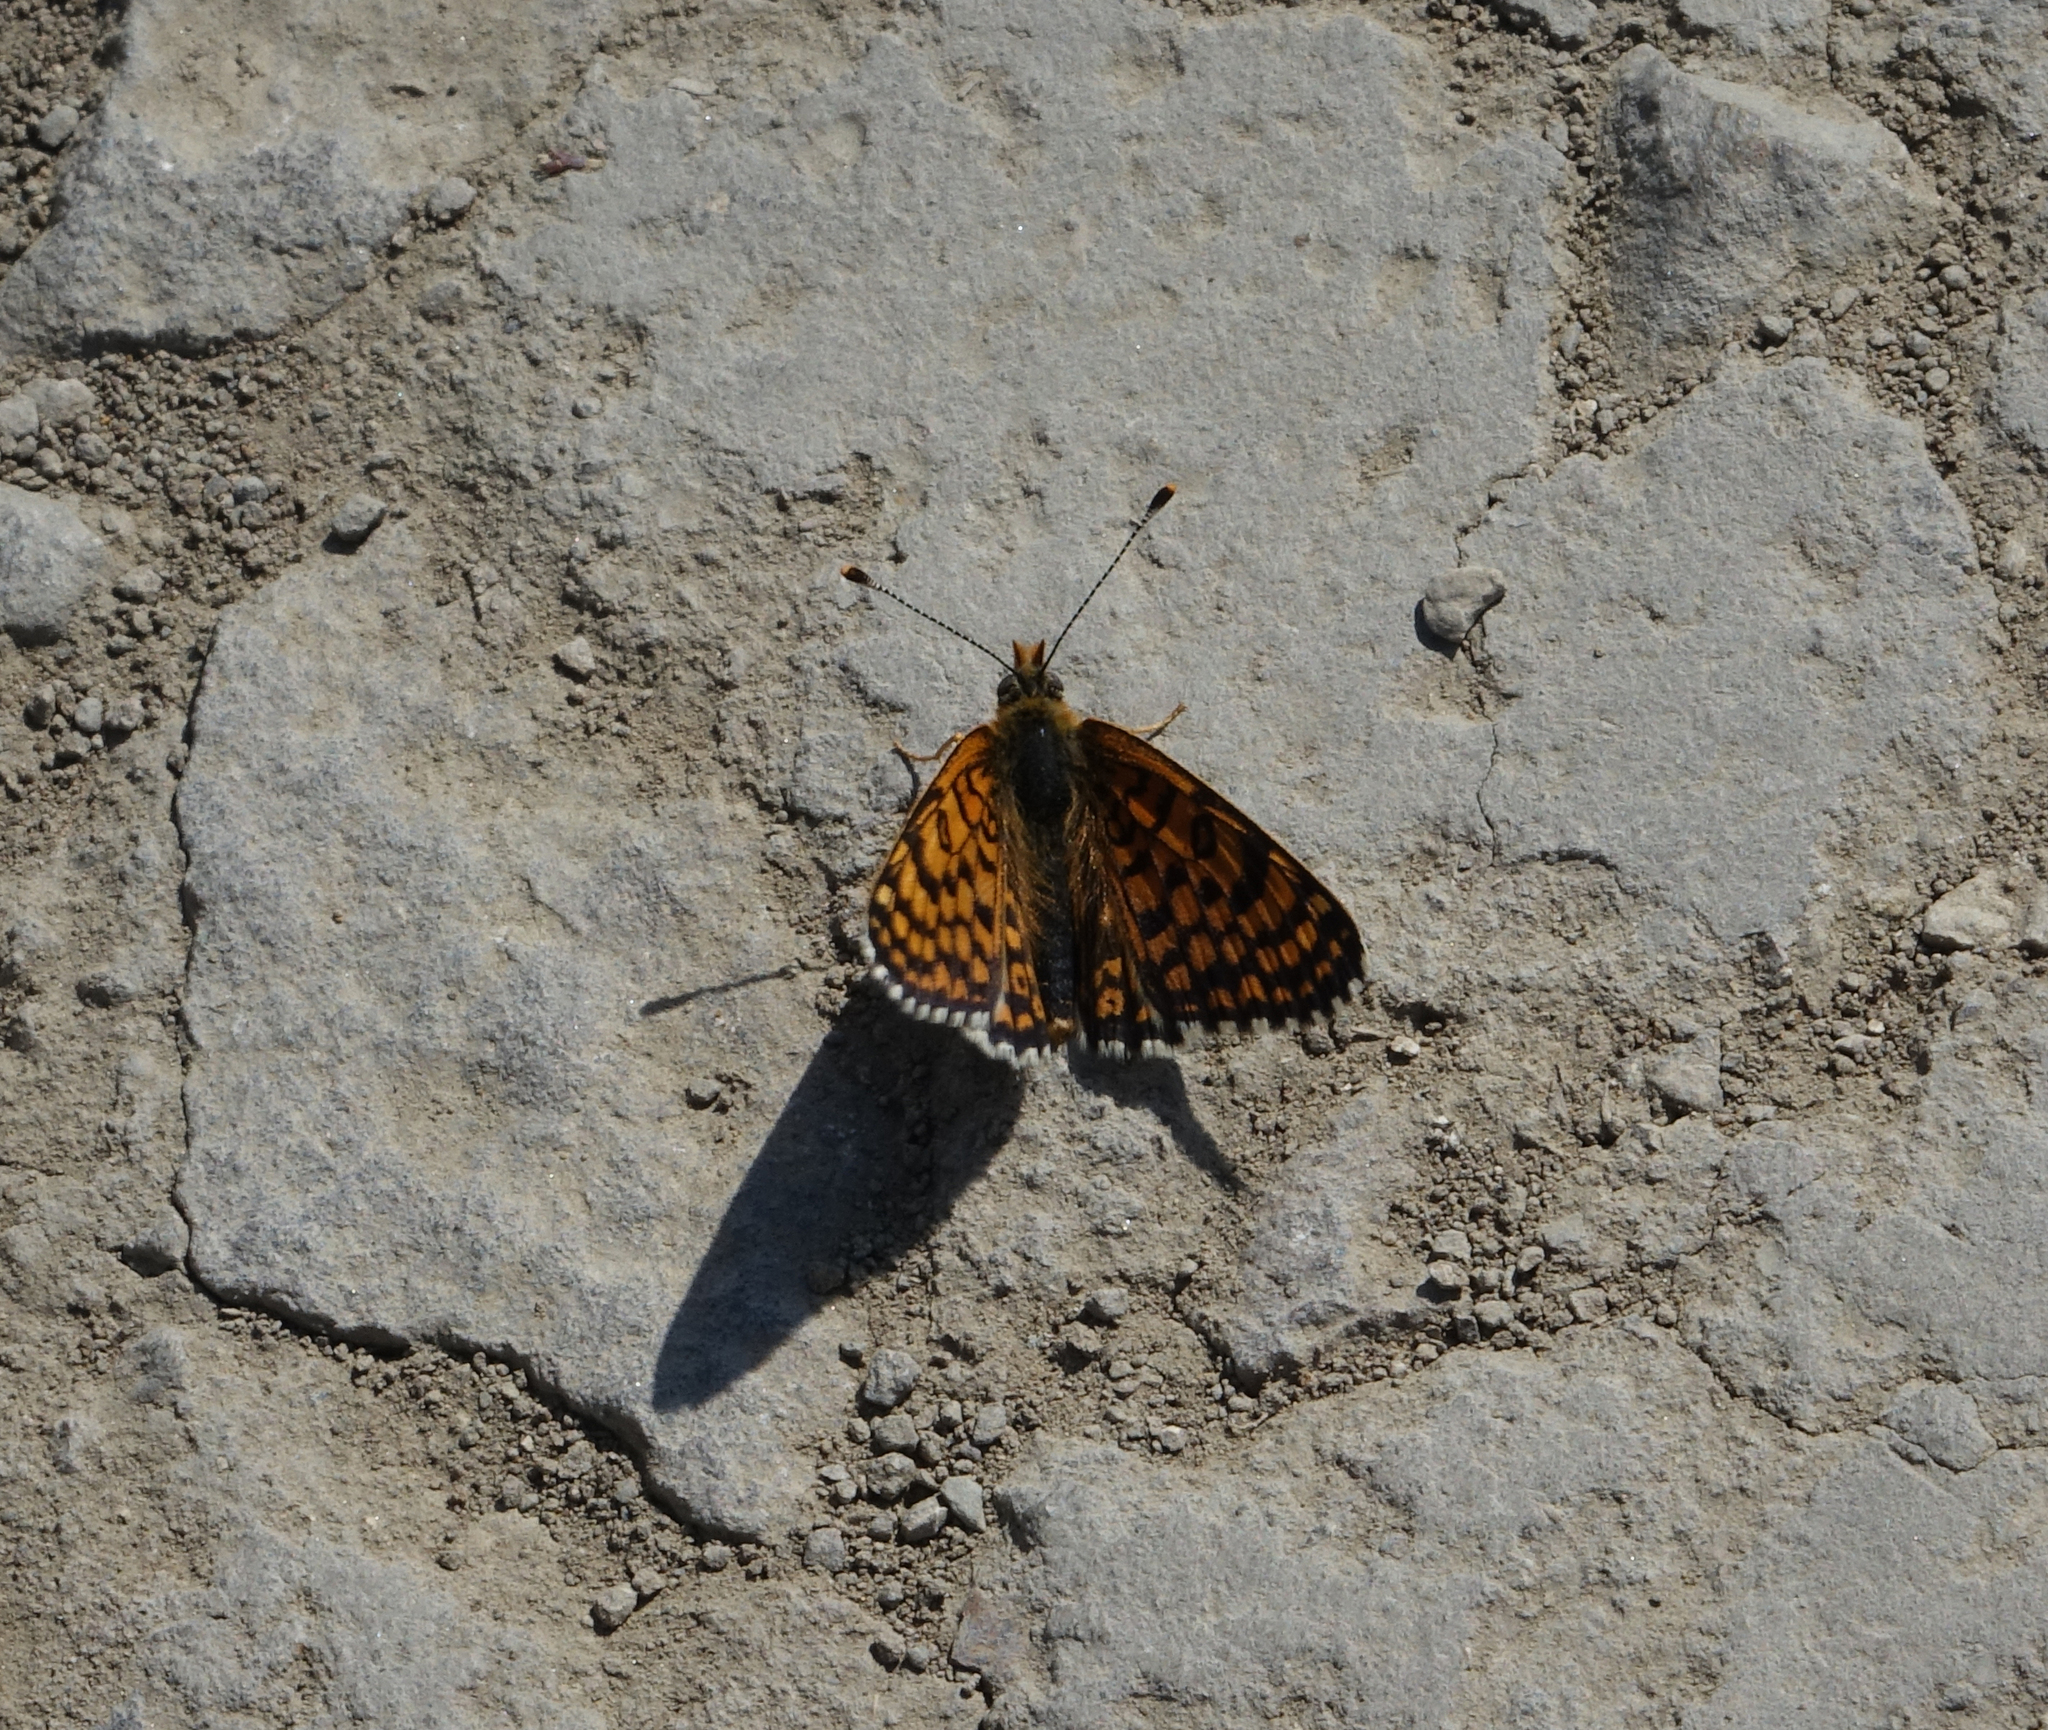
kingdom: Animalia
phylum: Arthropoda
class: Insecta
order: Lepidoptera
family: Nymphalidae
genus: Melitaea
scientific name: Melitaea cinxia
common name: Glanville fritillary
